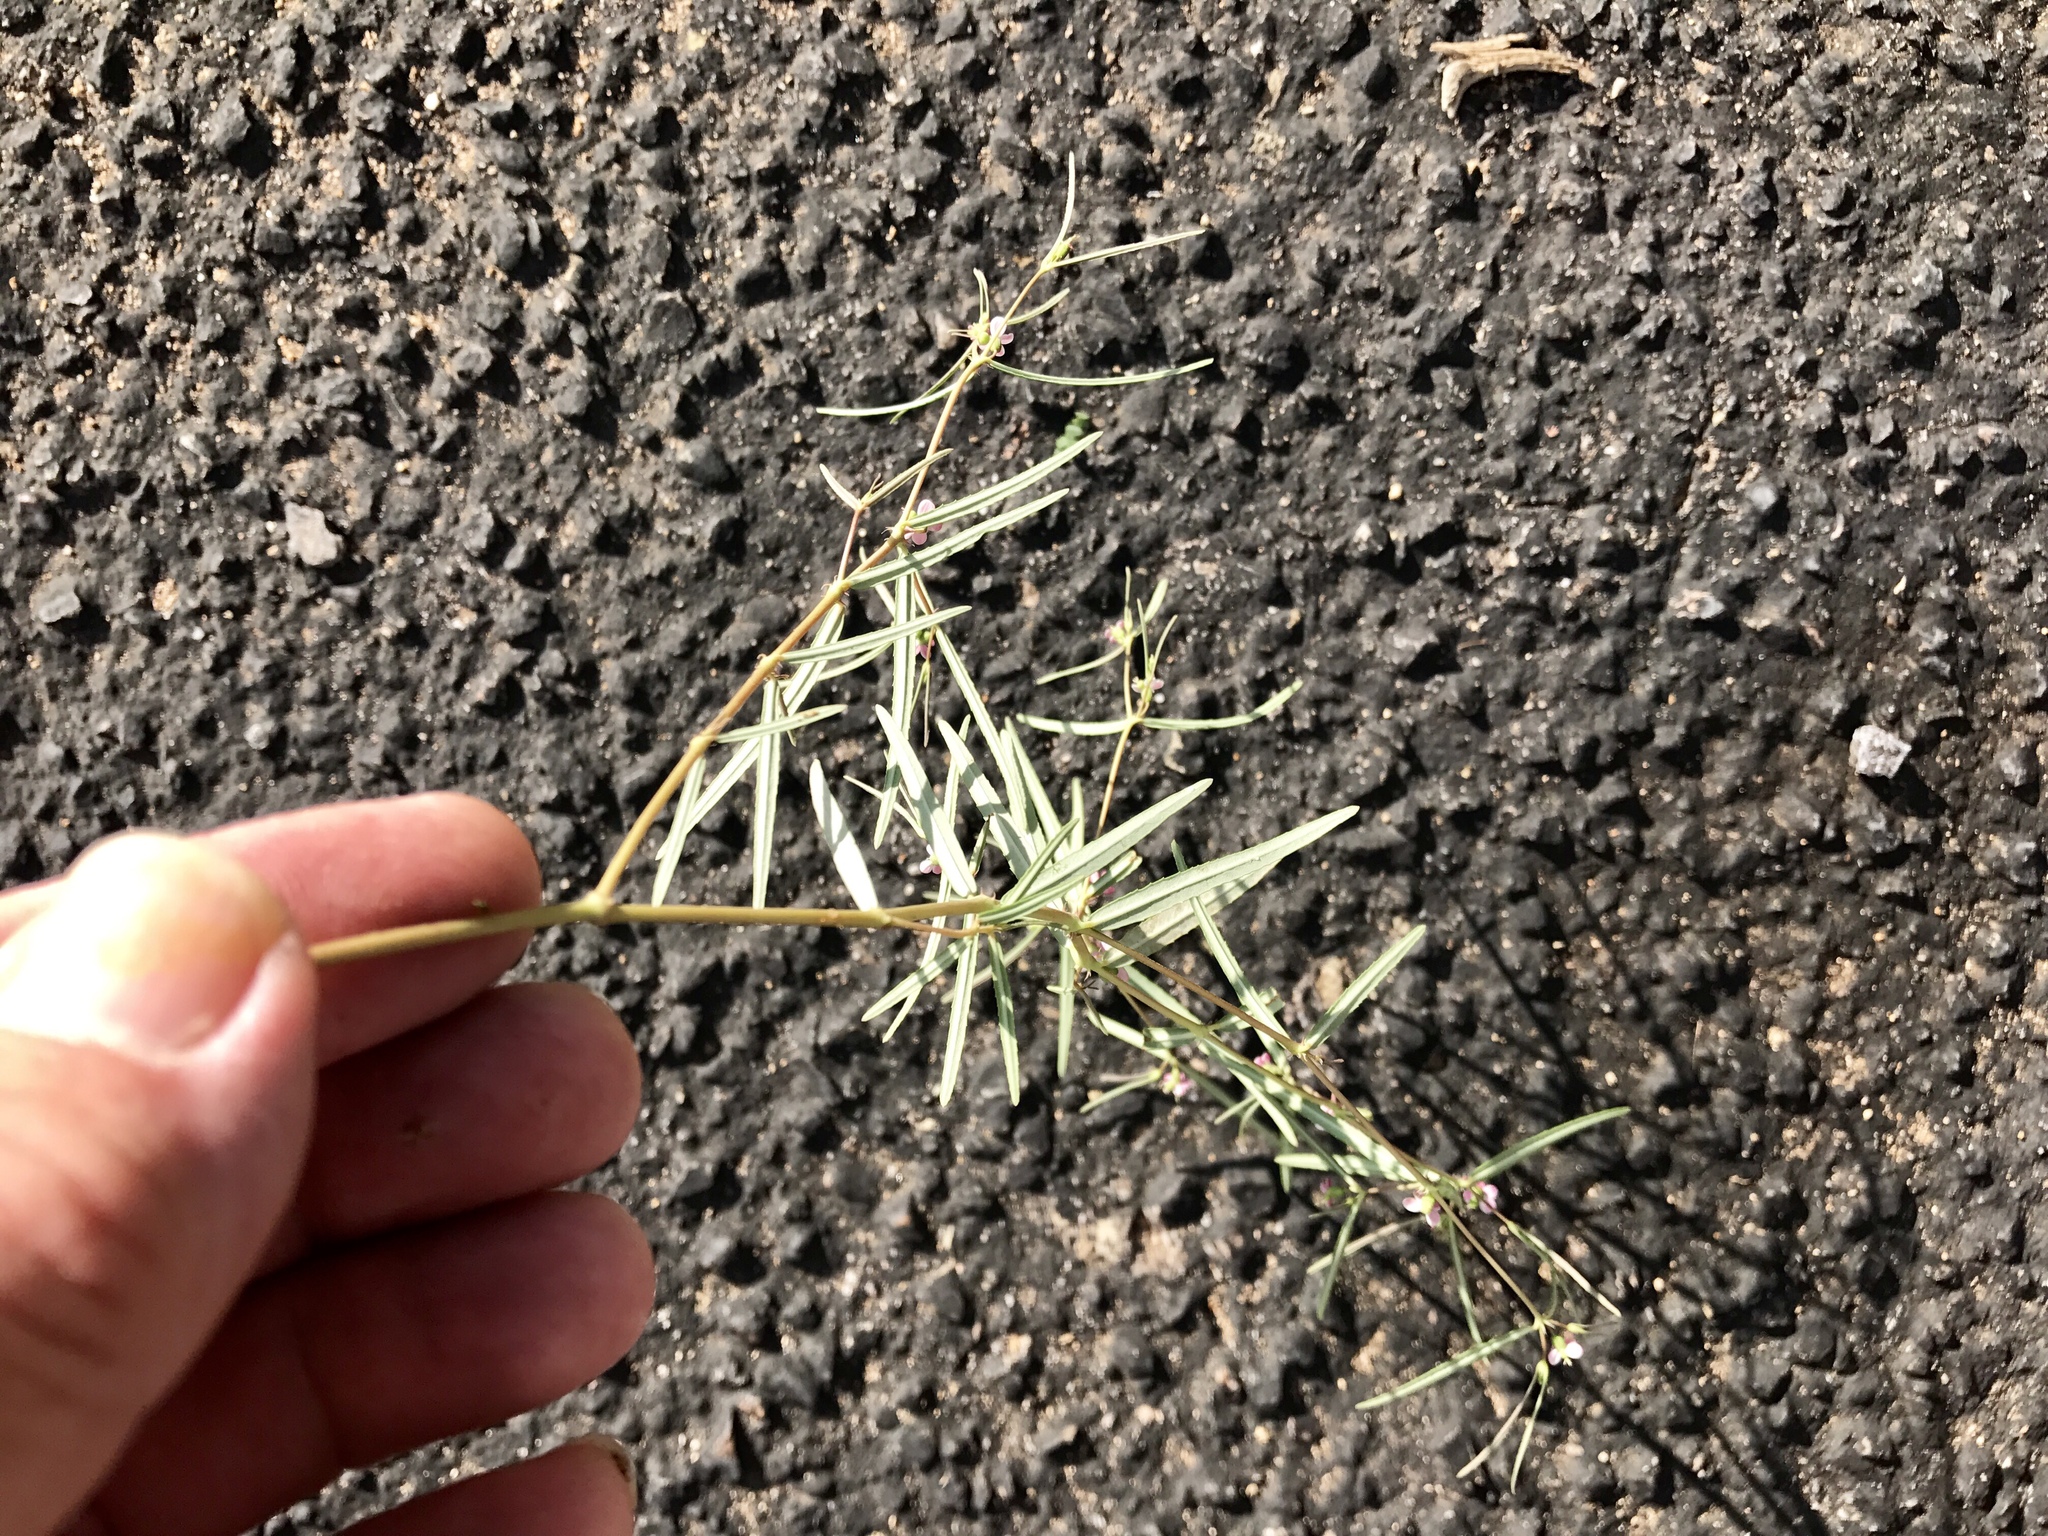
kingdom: Plantae
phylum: Tracheophyta
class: Magnoliopsida
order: Malpighiales
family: Euphorbiaceae
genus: Euphorbia
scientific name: Euphorbia florida
